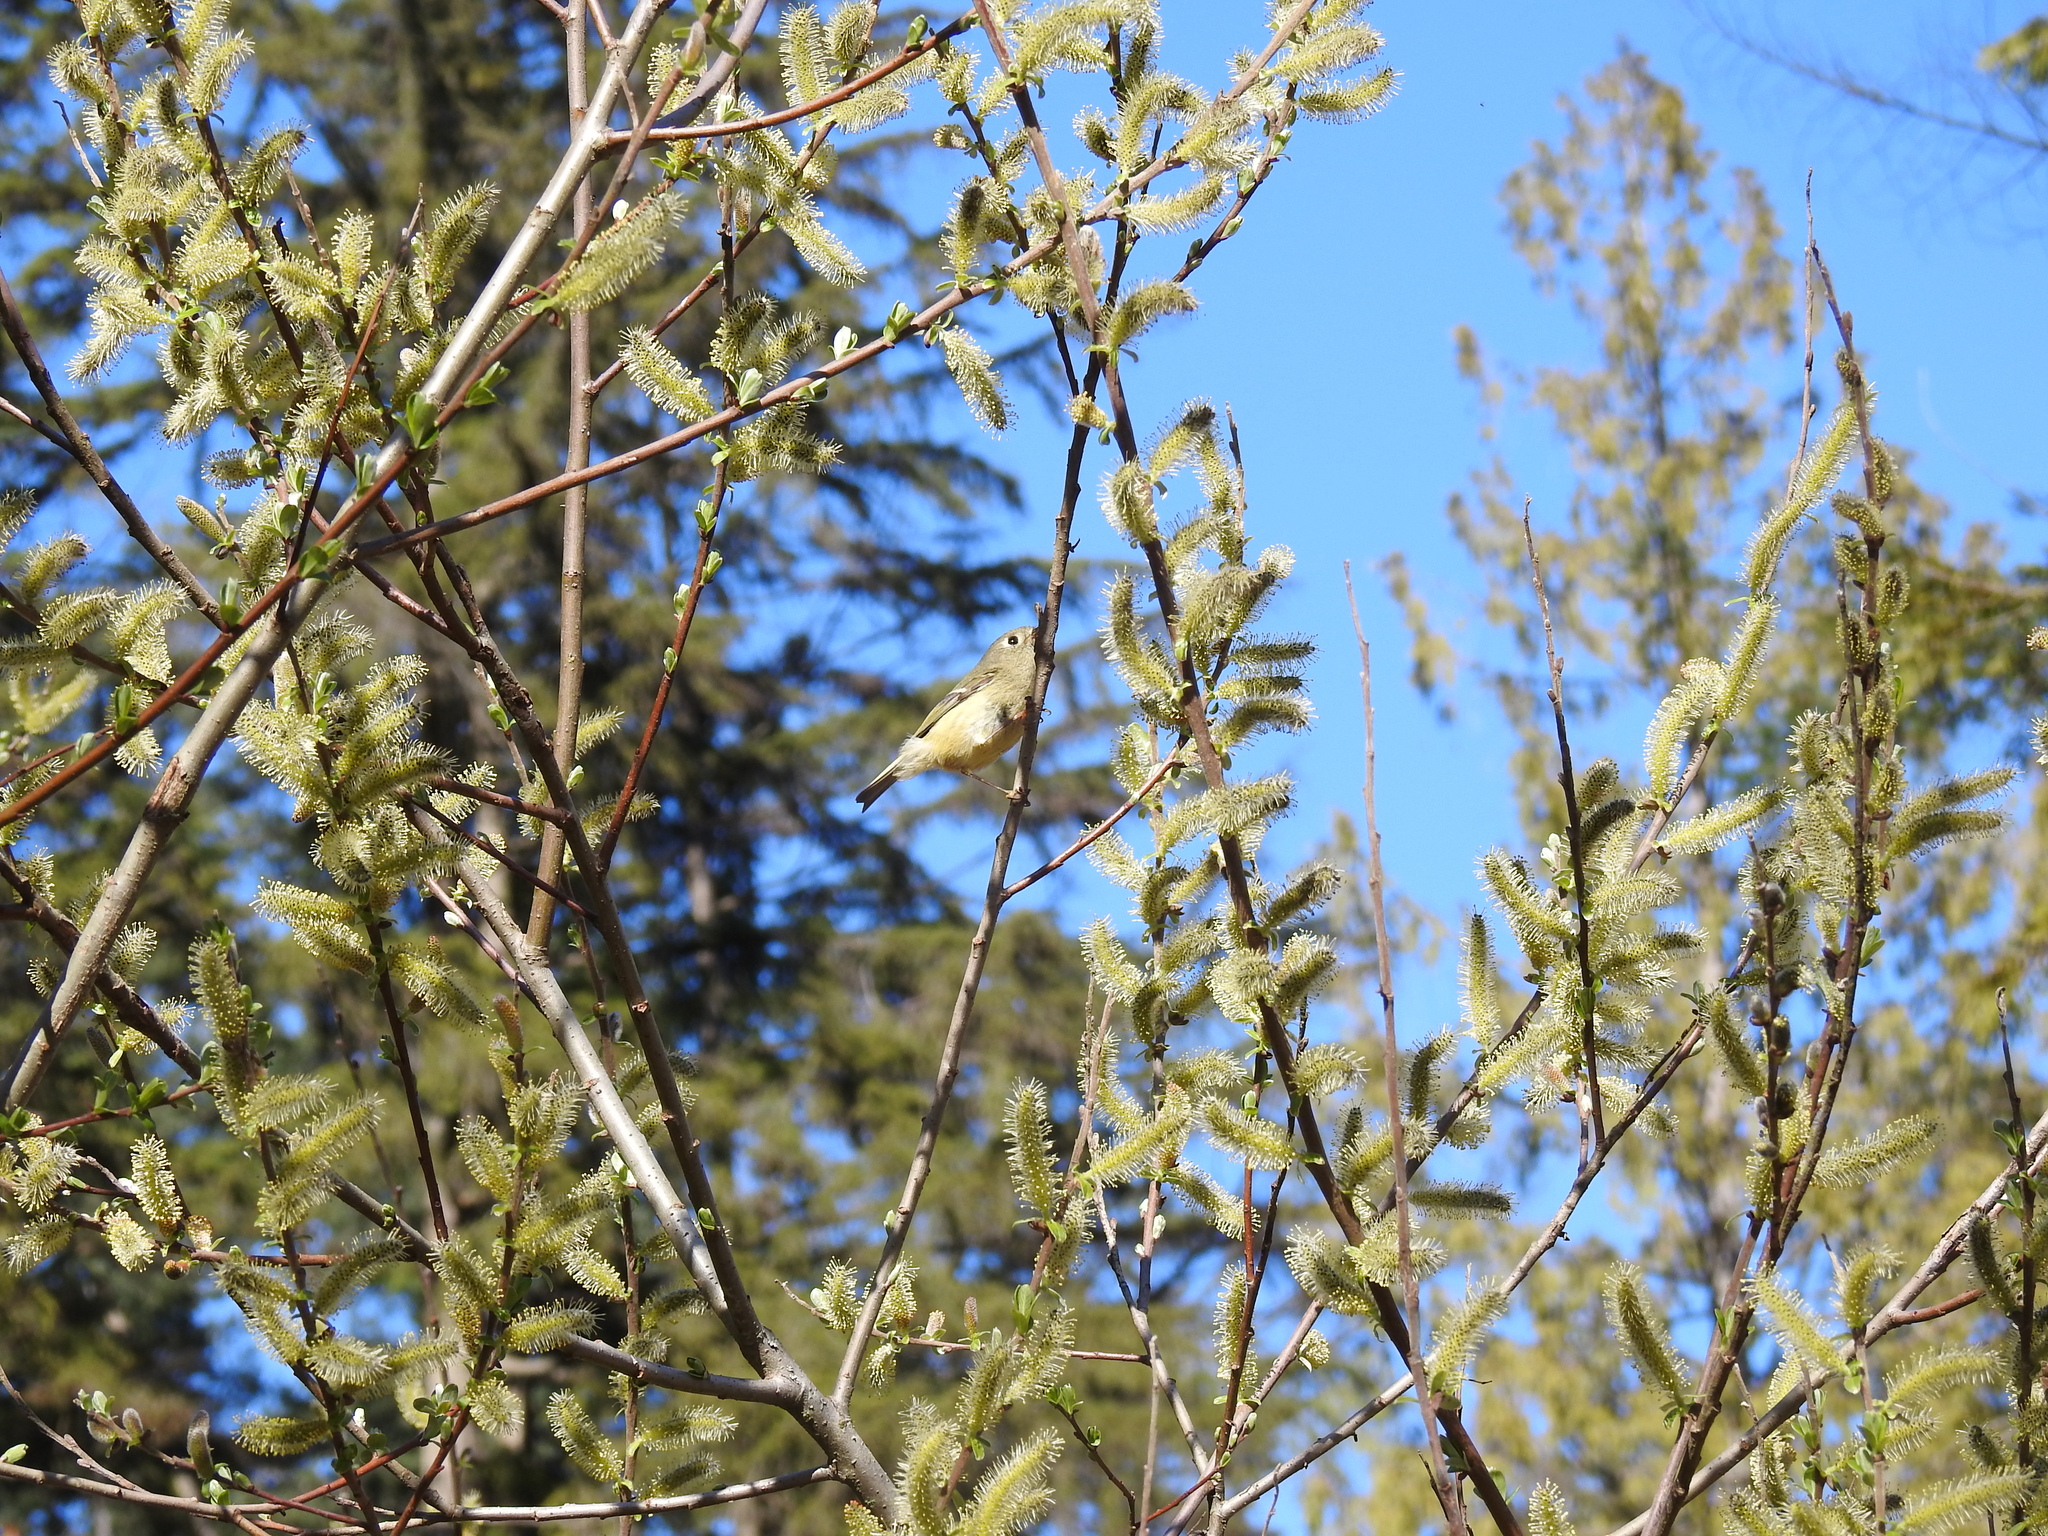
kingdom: Animalia
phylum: Chordata
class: Aves
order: Passeriformes
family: Regulidae
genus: Regulus
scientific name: Regulus calendula
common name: Ruby-crowned kinglet
